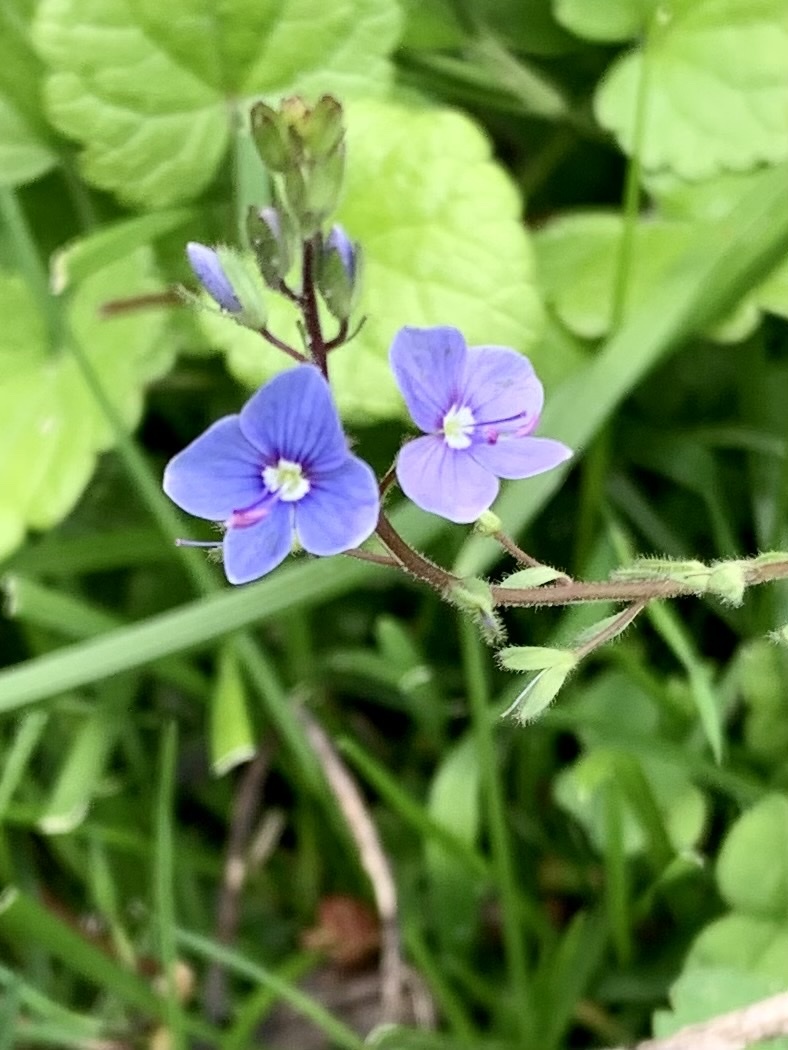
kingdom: Plantae
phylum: Tracheophyta
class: Magnoliopsida
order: Lamiales
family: Plantaginaceae
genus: Veronica
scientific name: Veronica chamaedrys
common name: Germander speedwell
